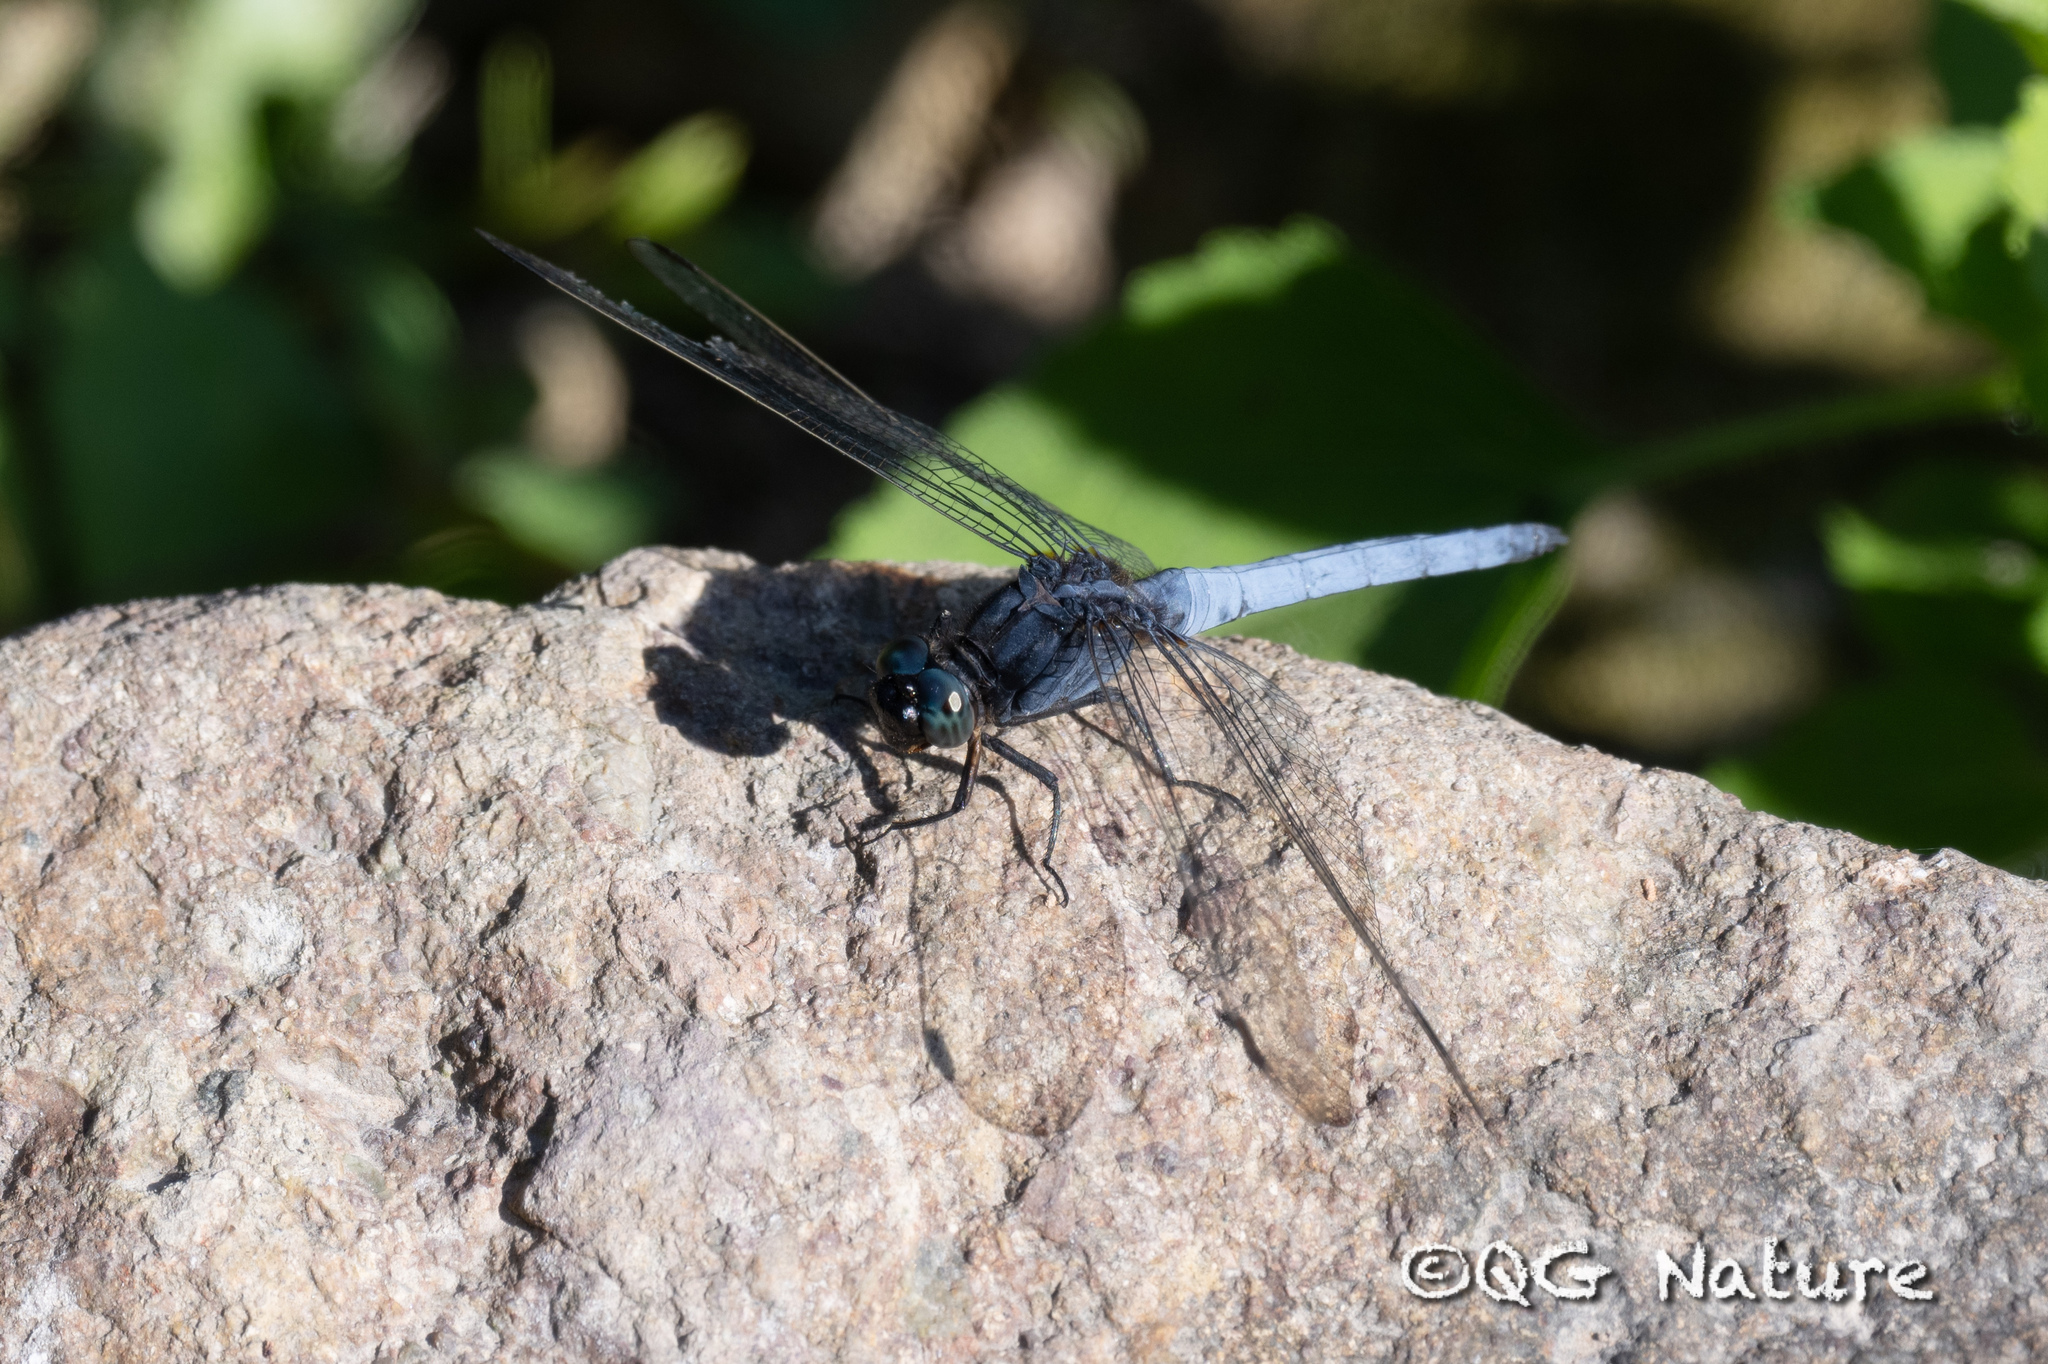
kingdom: Animalia
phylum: Arthropoda
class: Insecta
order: Odonata
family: Libellulidae
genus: Orthetrum
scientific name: Orthetrum glaucum
